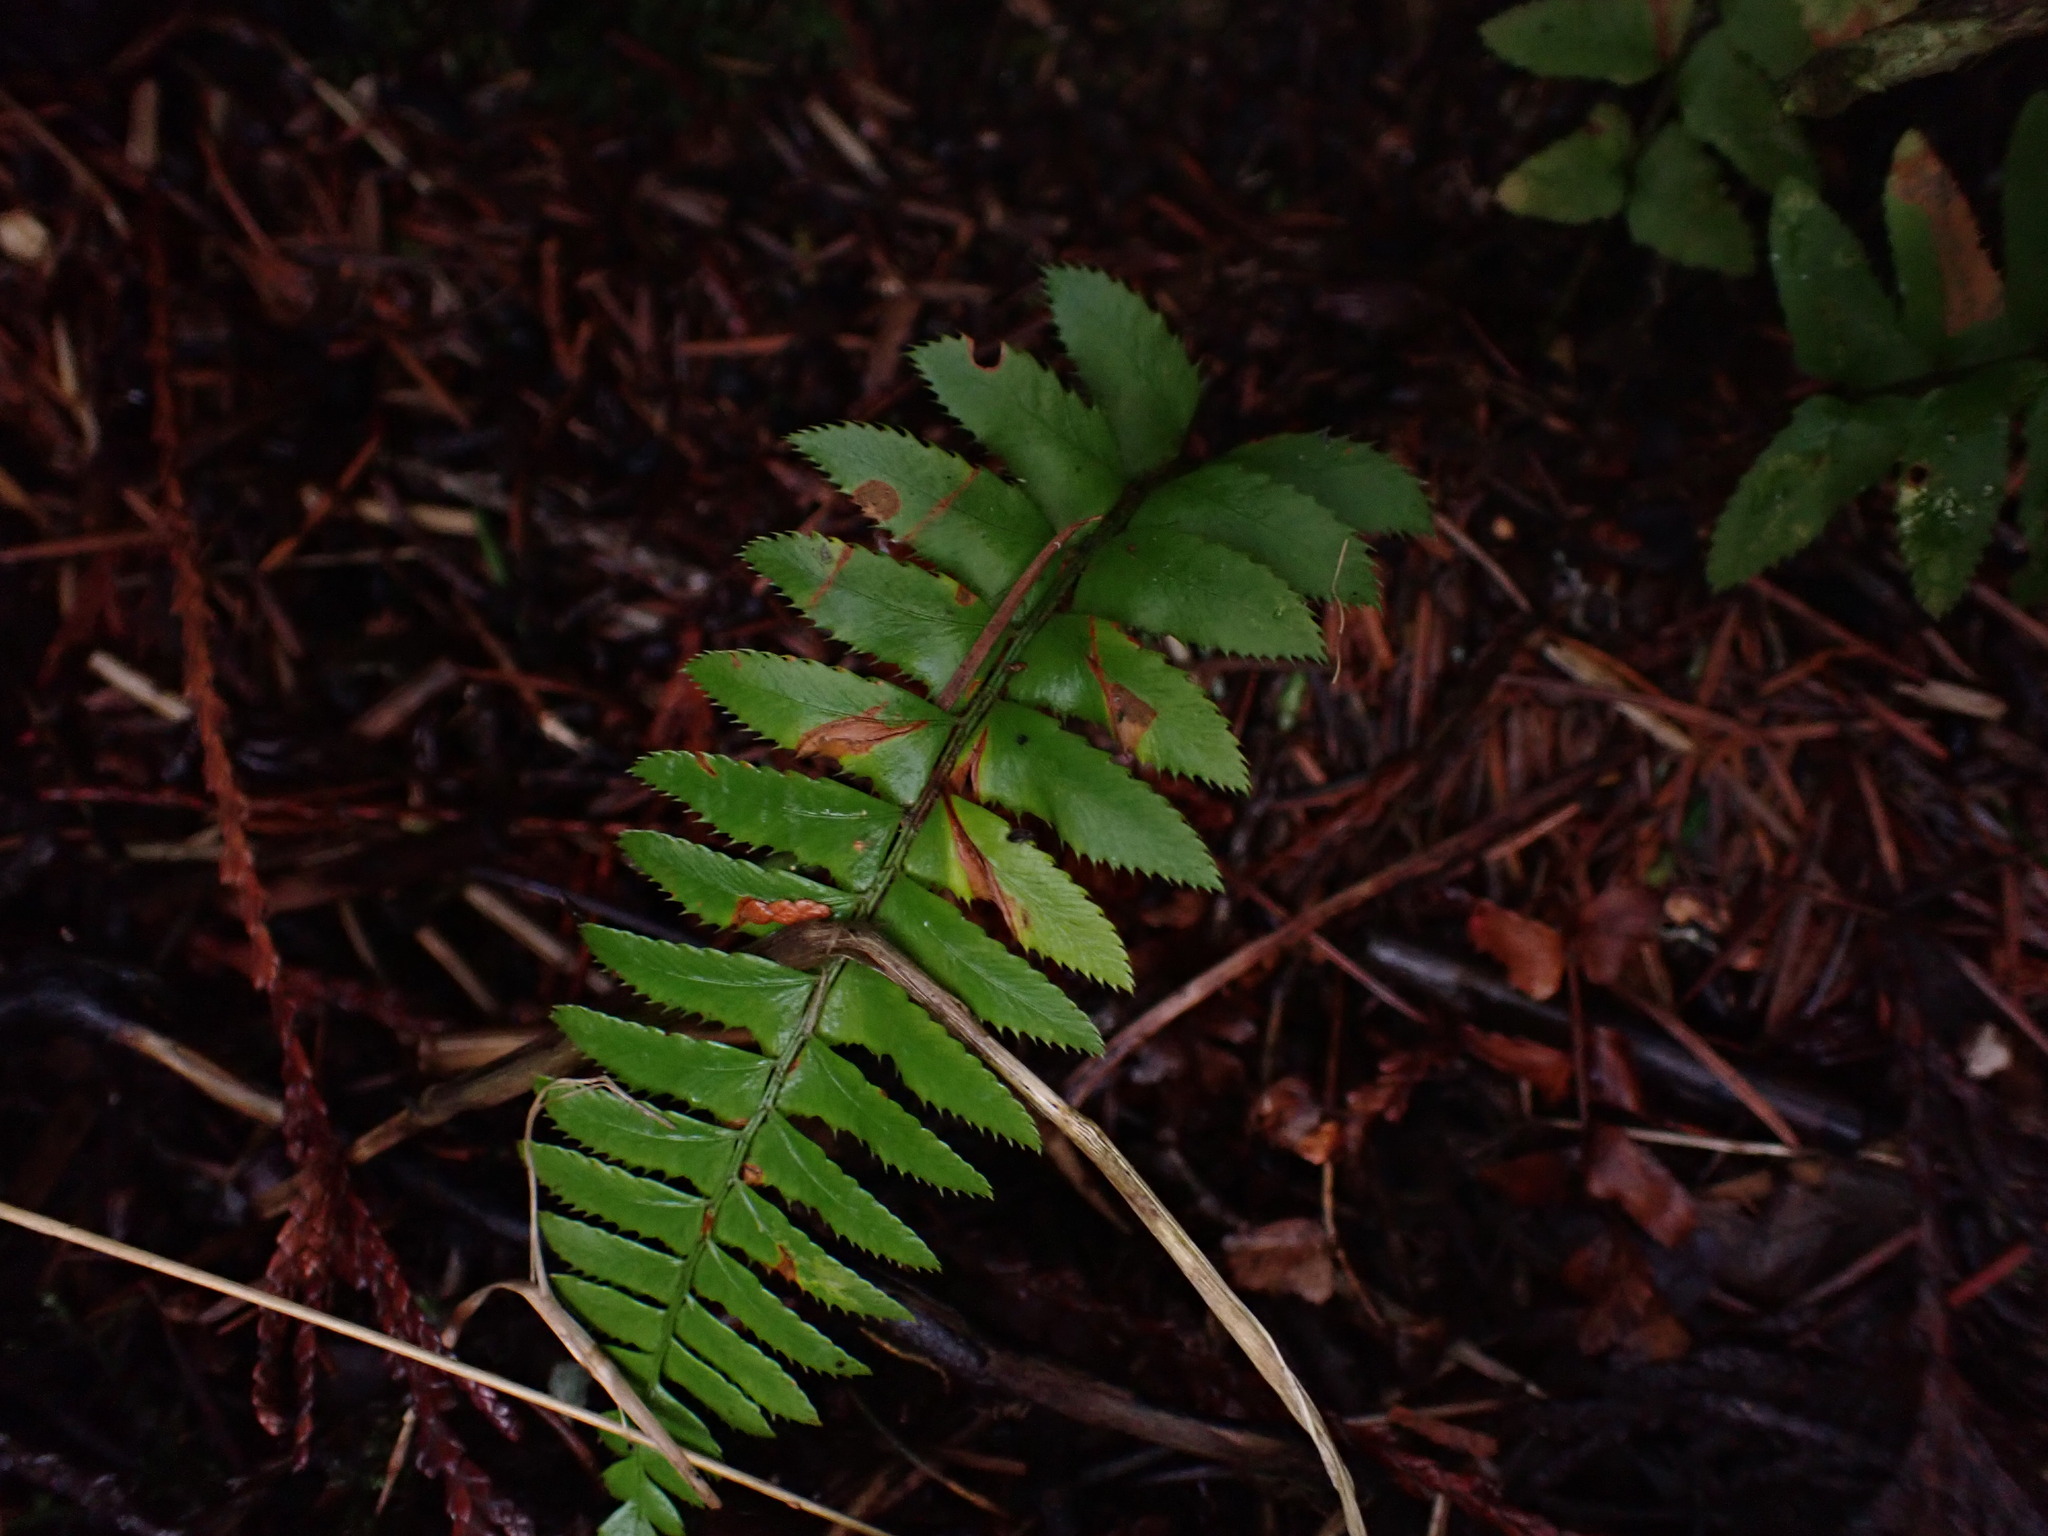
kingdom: Plantae
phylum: Tracheophyta
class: Polypodiopsida
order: Polypodiales
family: Dryopteridaceae
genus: Polystichum
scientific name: Polystichum munitum
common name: Western sword-fern
